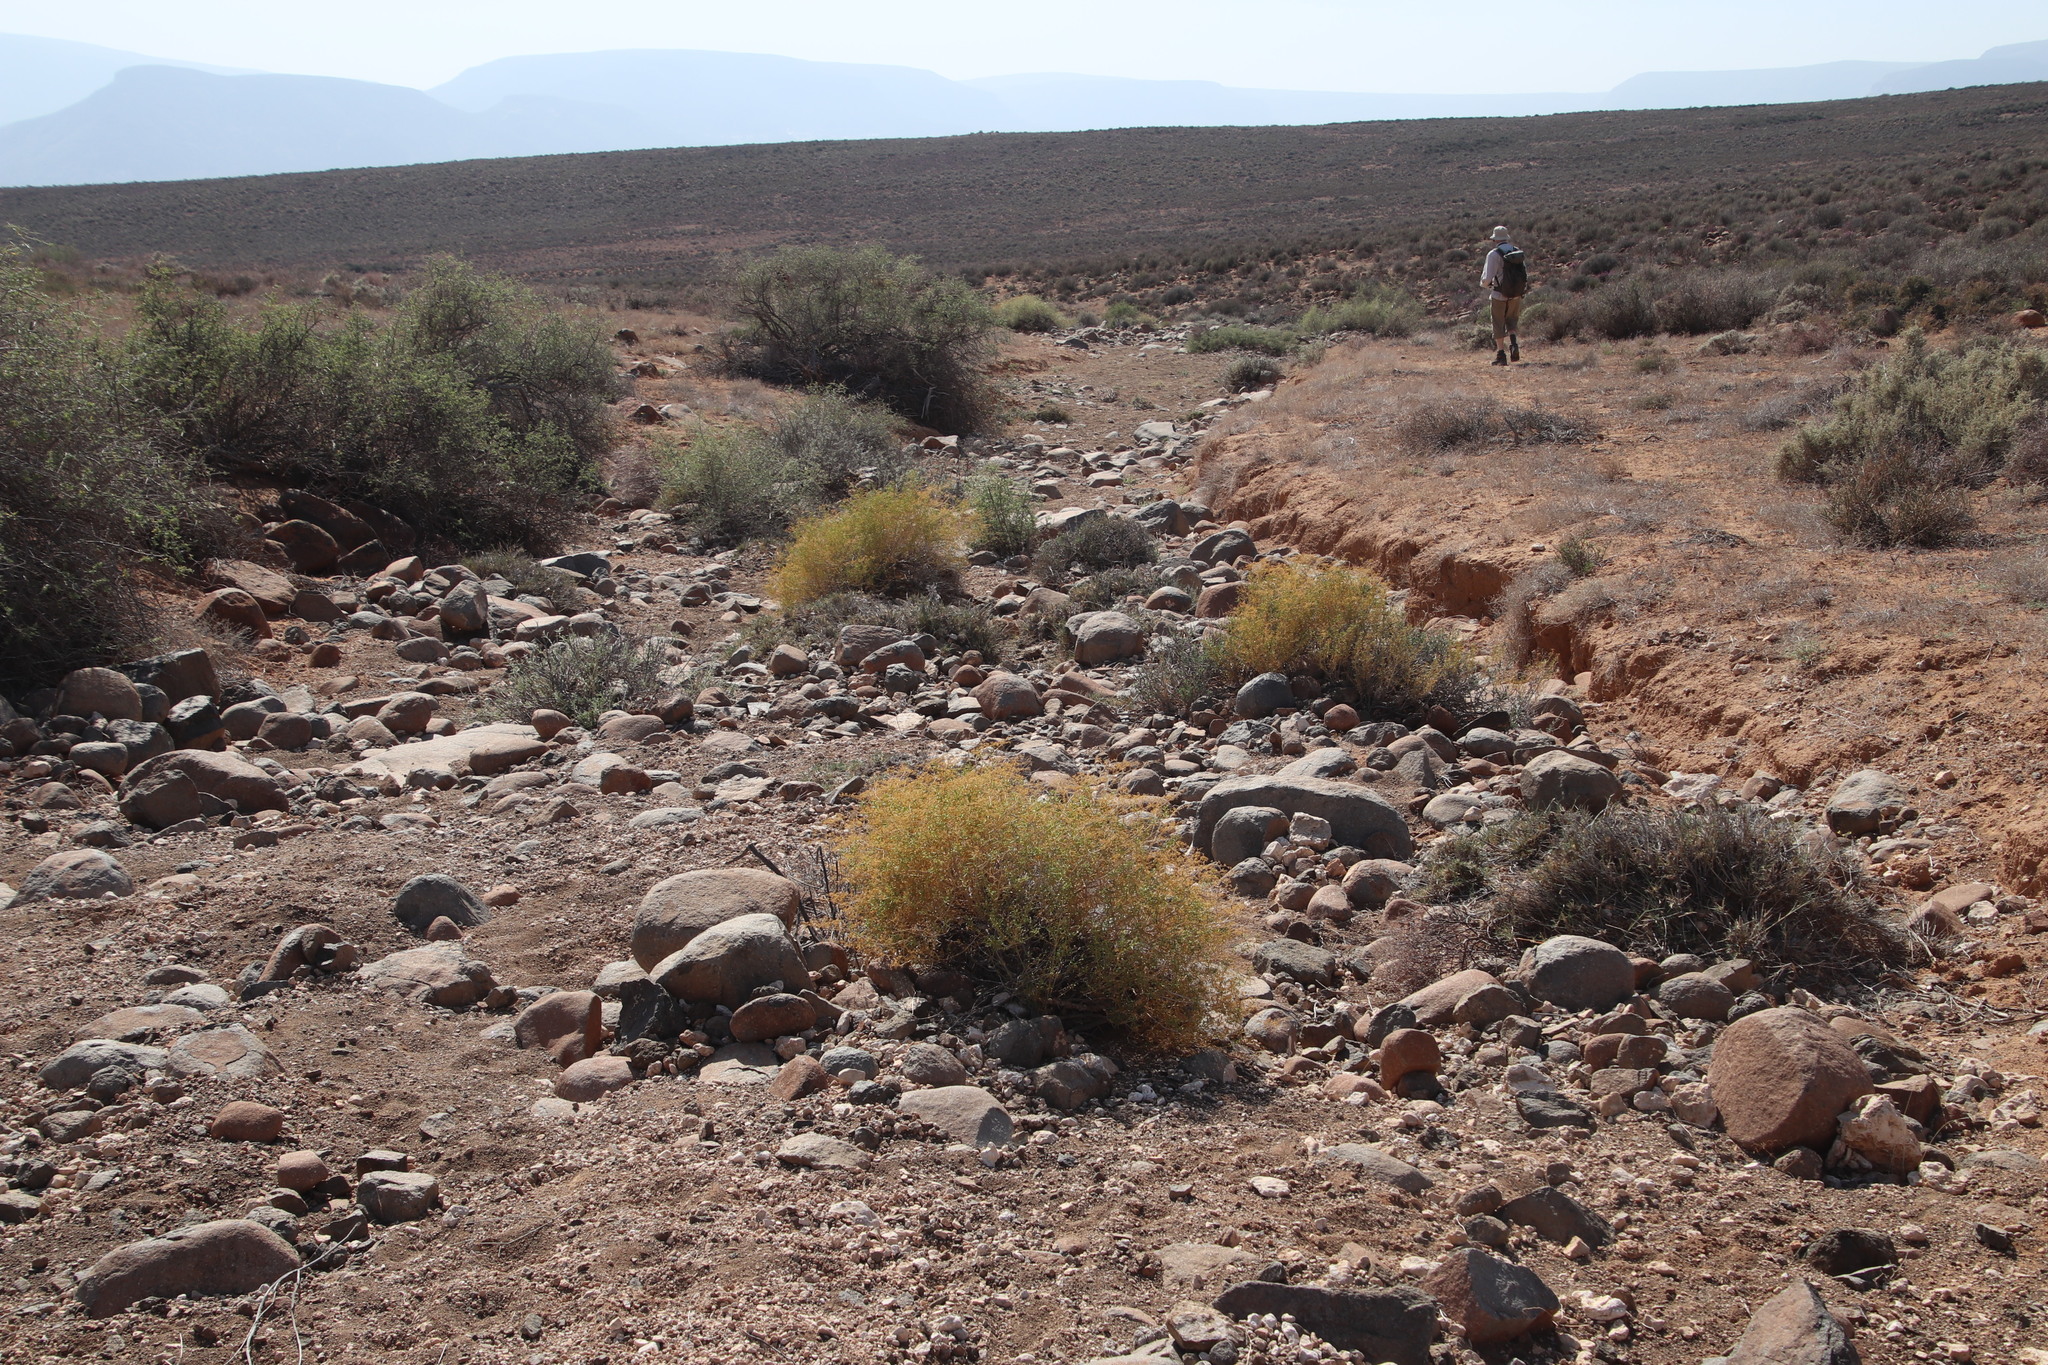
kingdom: Plantae
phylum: Tracheophyta
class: Magnoliopsida
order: Caryophyllales
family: Aizoaceae
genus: Aizoon
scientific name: Aizoon africanum
